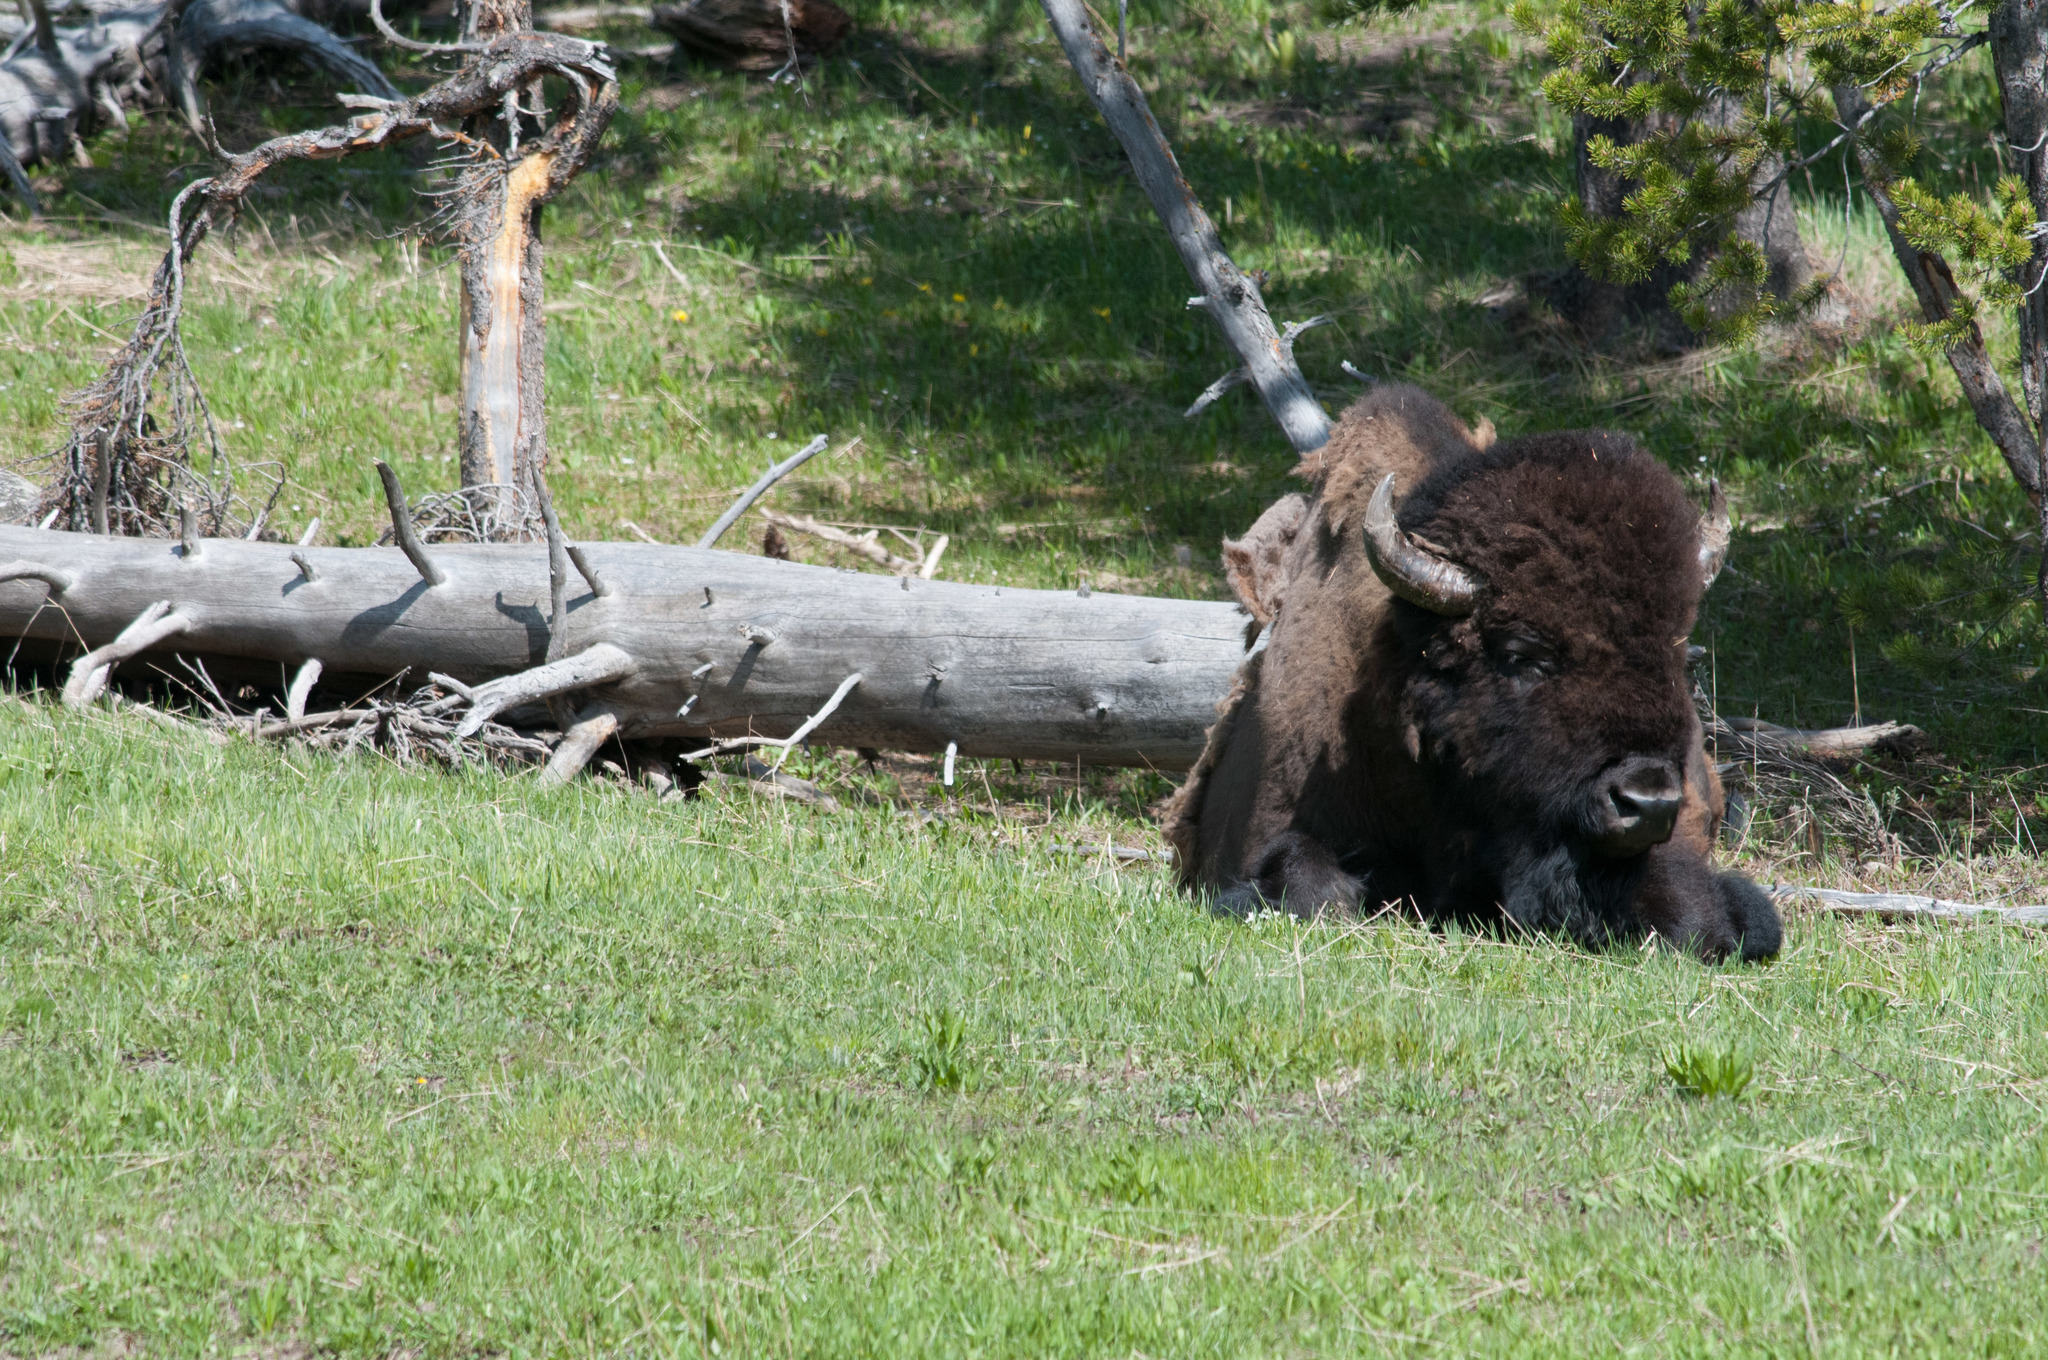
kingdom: Animalia
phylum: Chordata
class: Mammalia
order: Artiodactyla
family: Bovidae
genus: Bison
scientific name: Bison bison
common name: American bison
